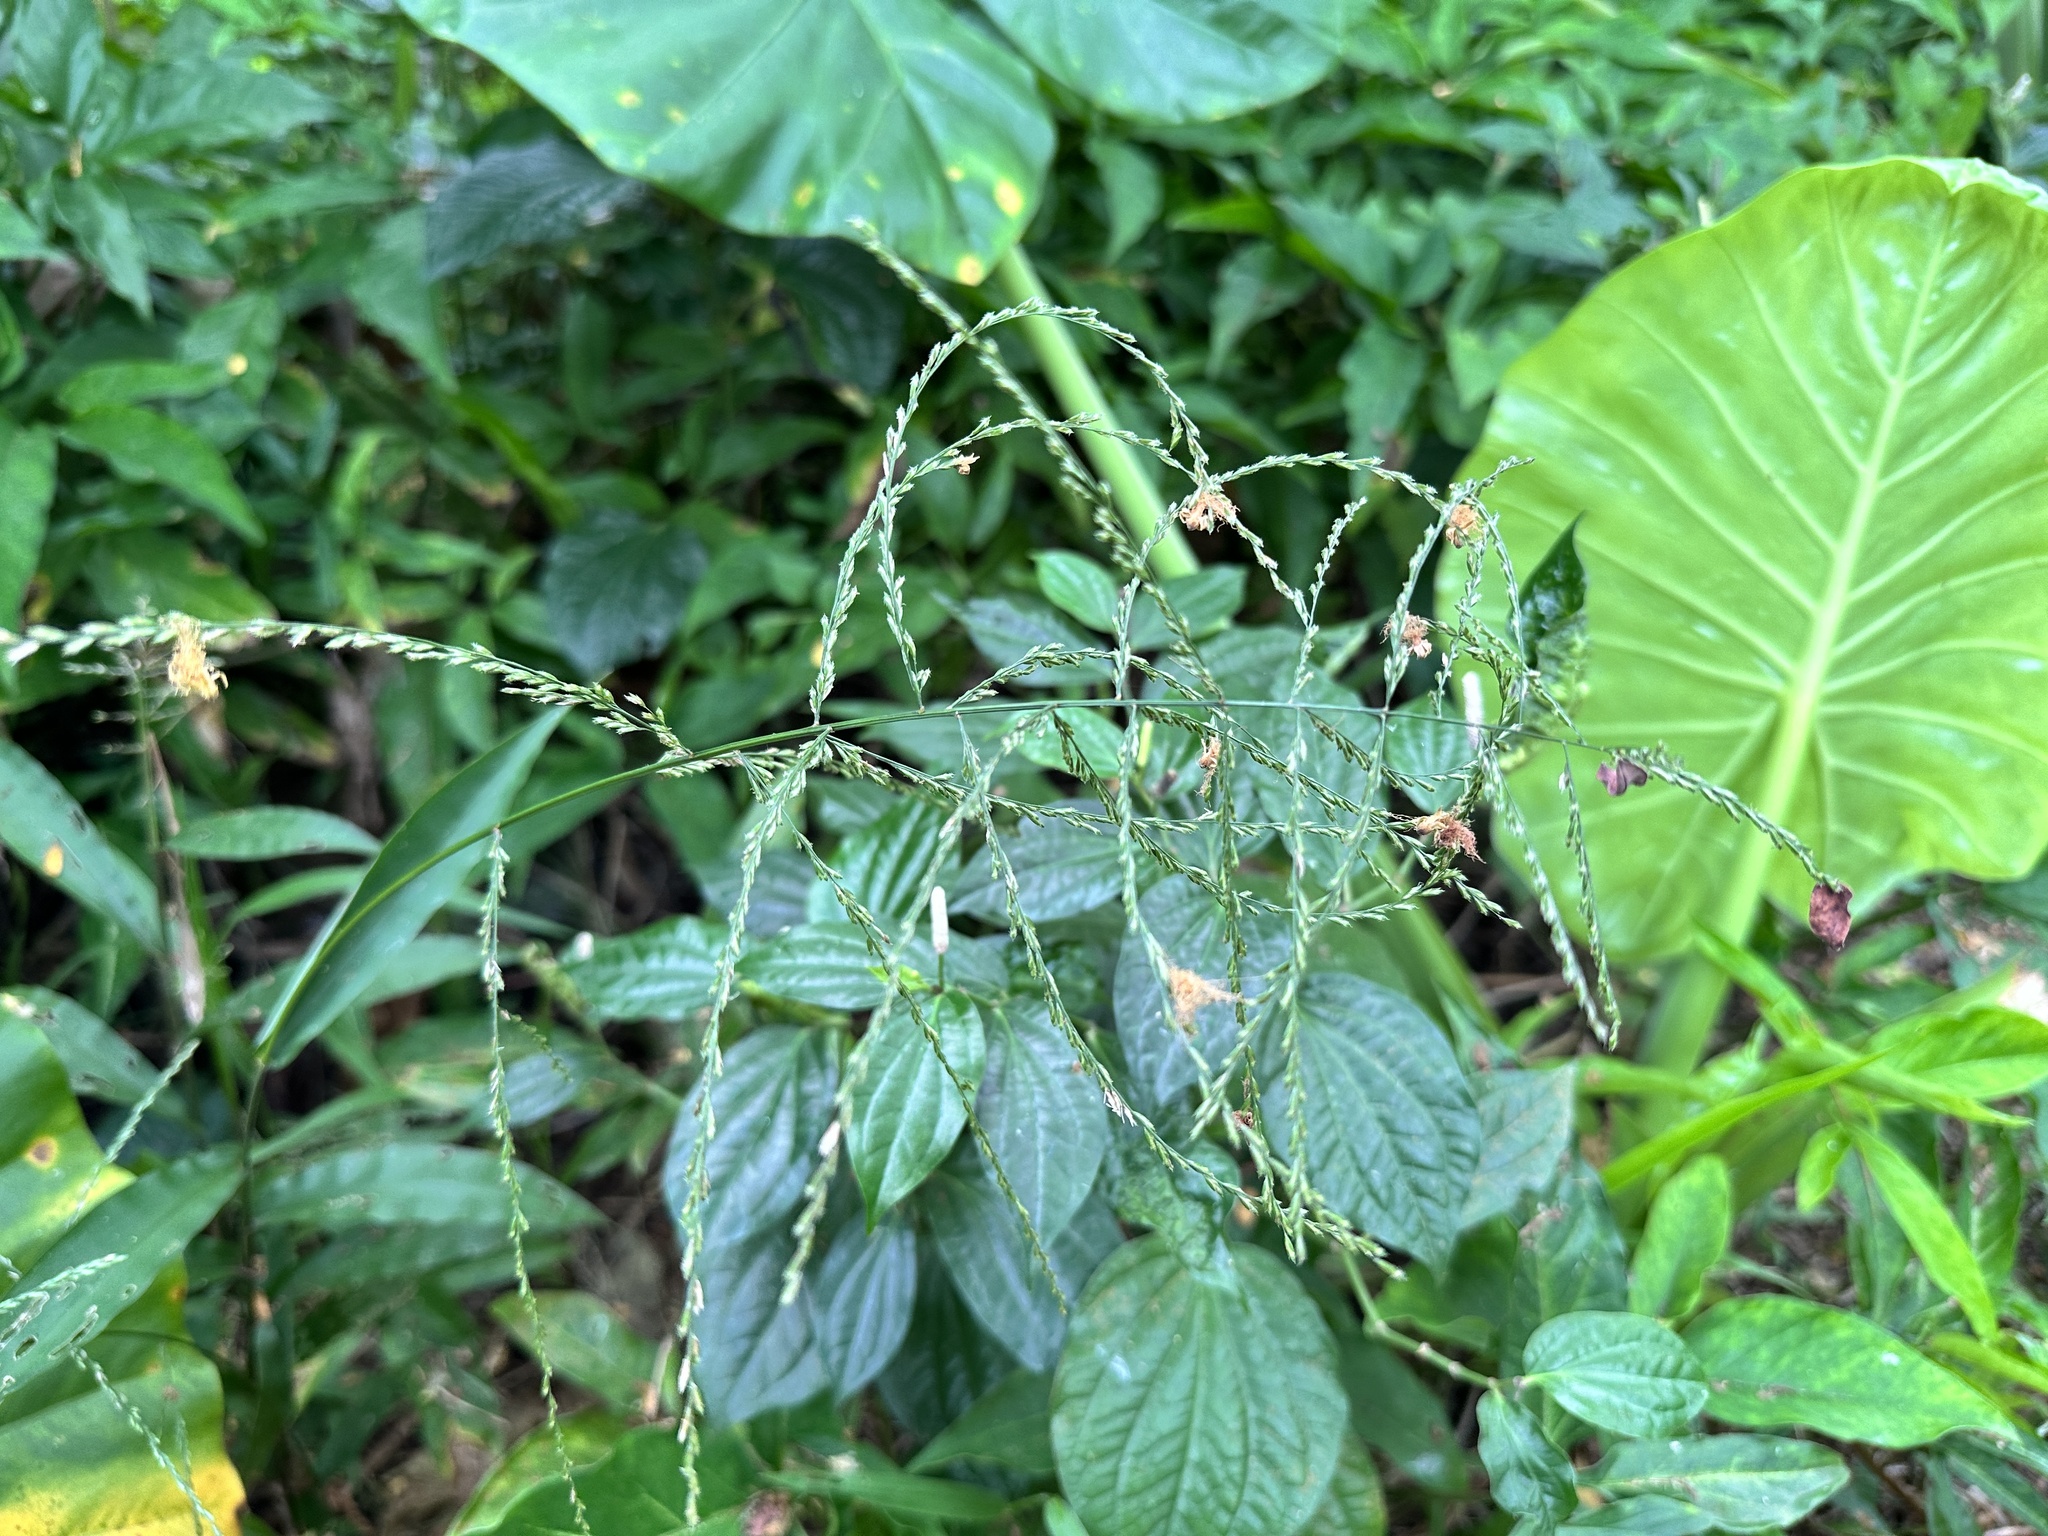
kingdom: Plantae
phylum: Tracheophyta
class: Liliopsida
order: Poales
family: Poaceae
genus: Centotheca
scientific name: Centotheca lappacea
